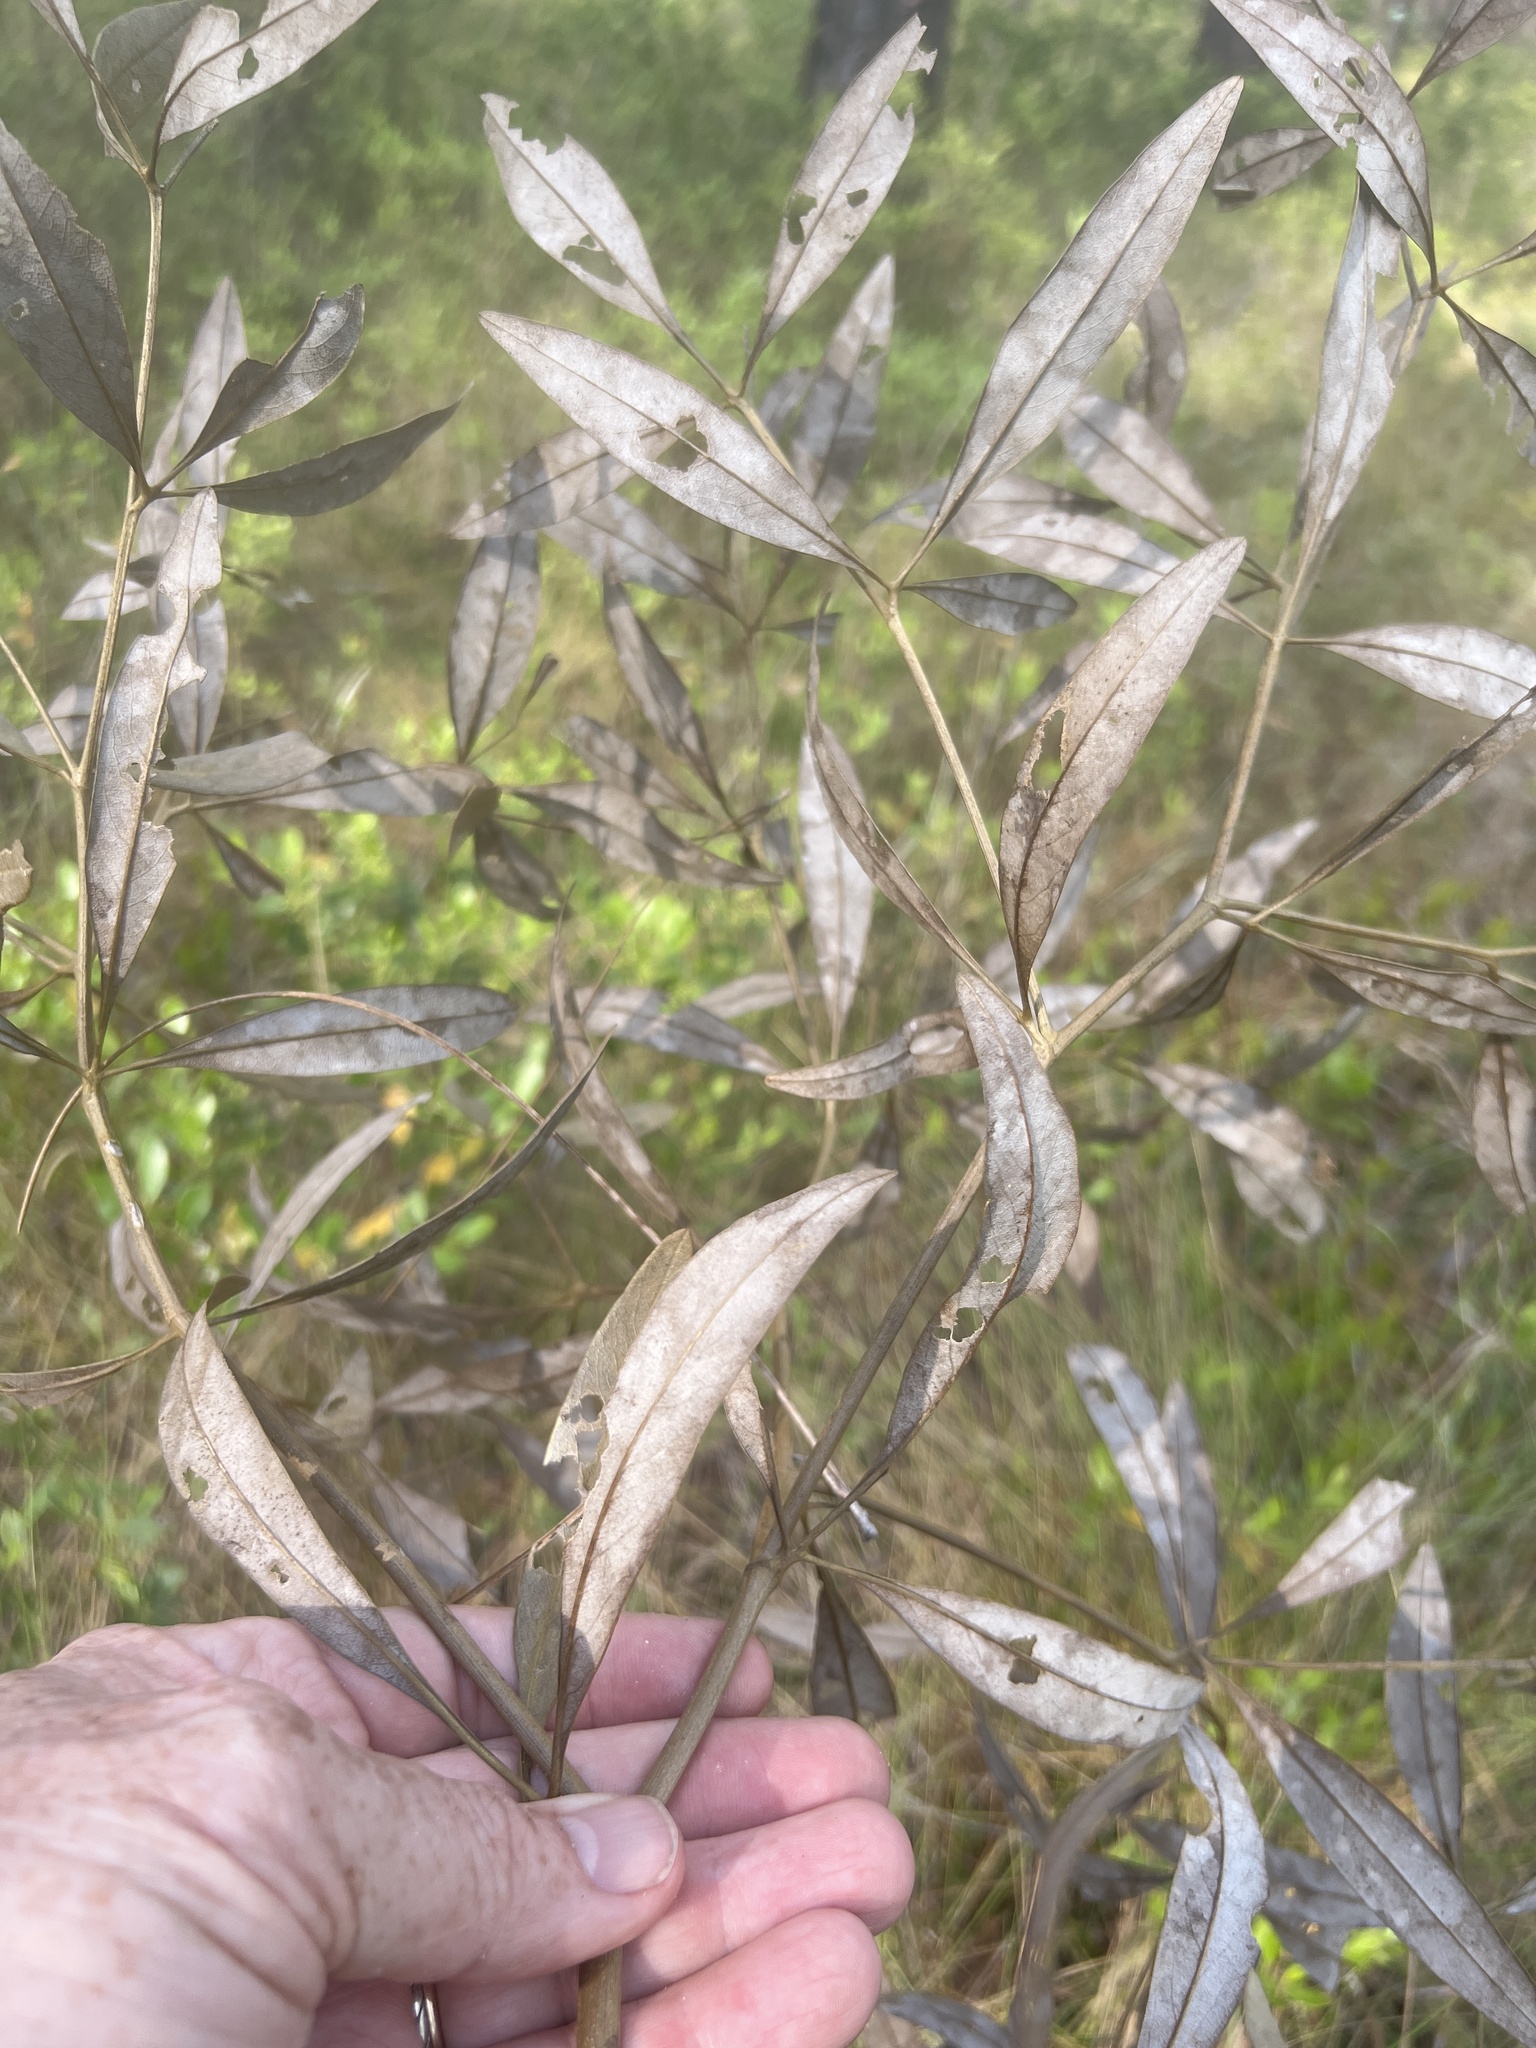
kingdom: Plantae
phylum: Tracheophyta
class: Magnoliopsida
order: Fabales
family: Fabaceae
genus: Baptisia
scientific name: Baptisia lanceolata
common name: Gopherweed
